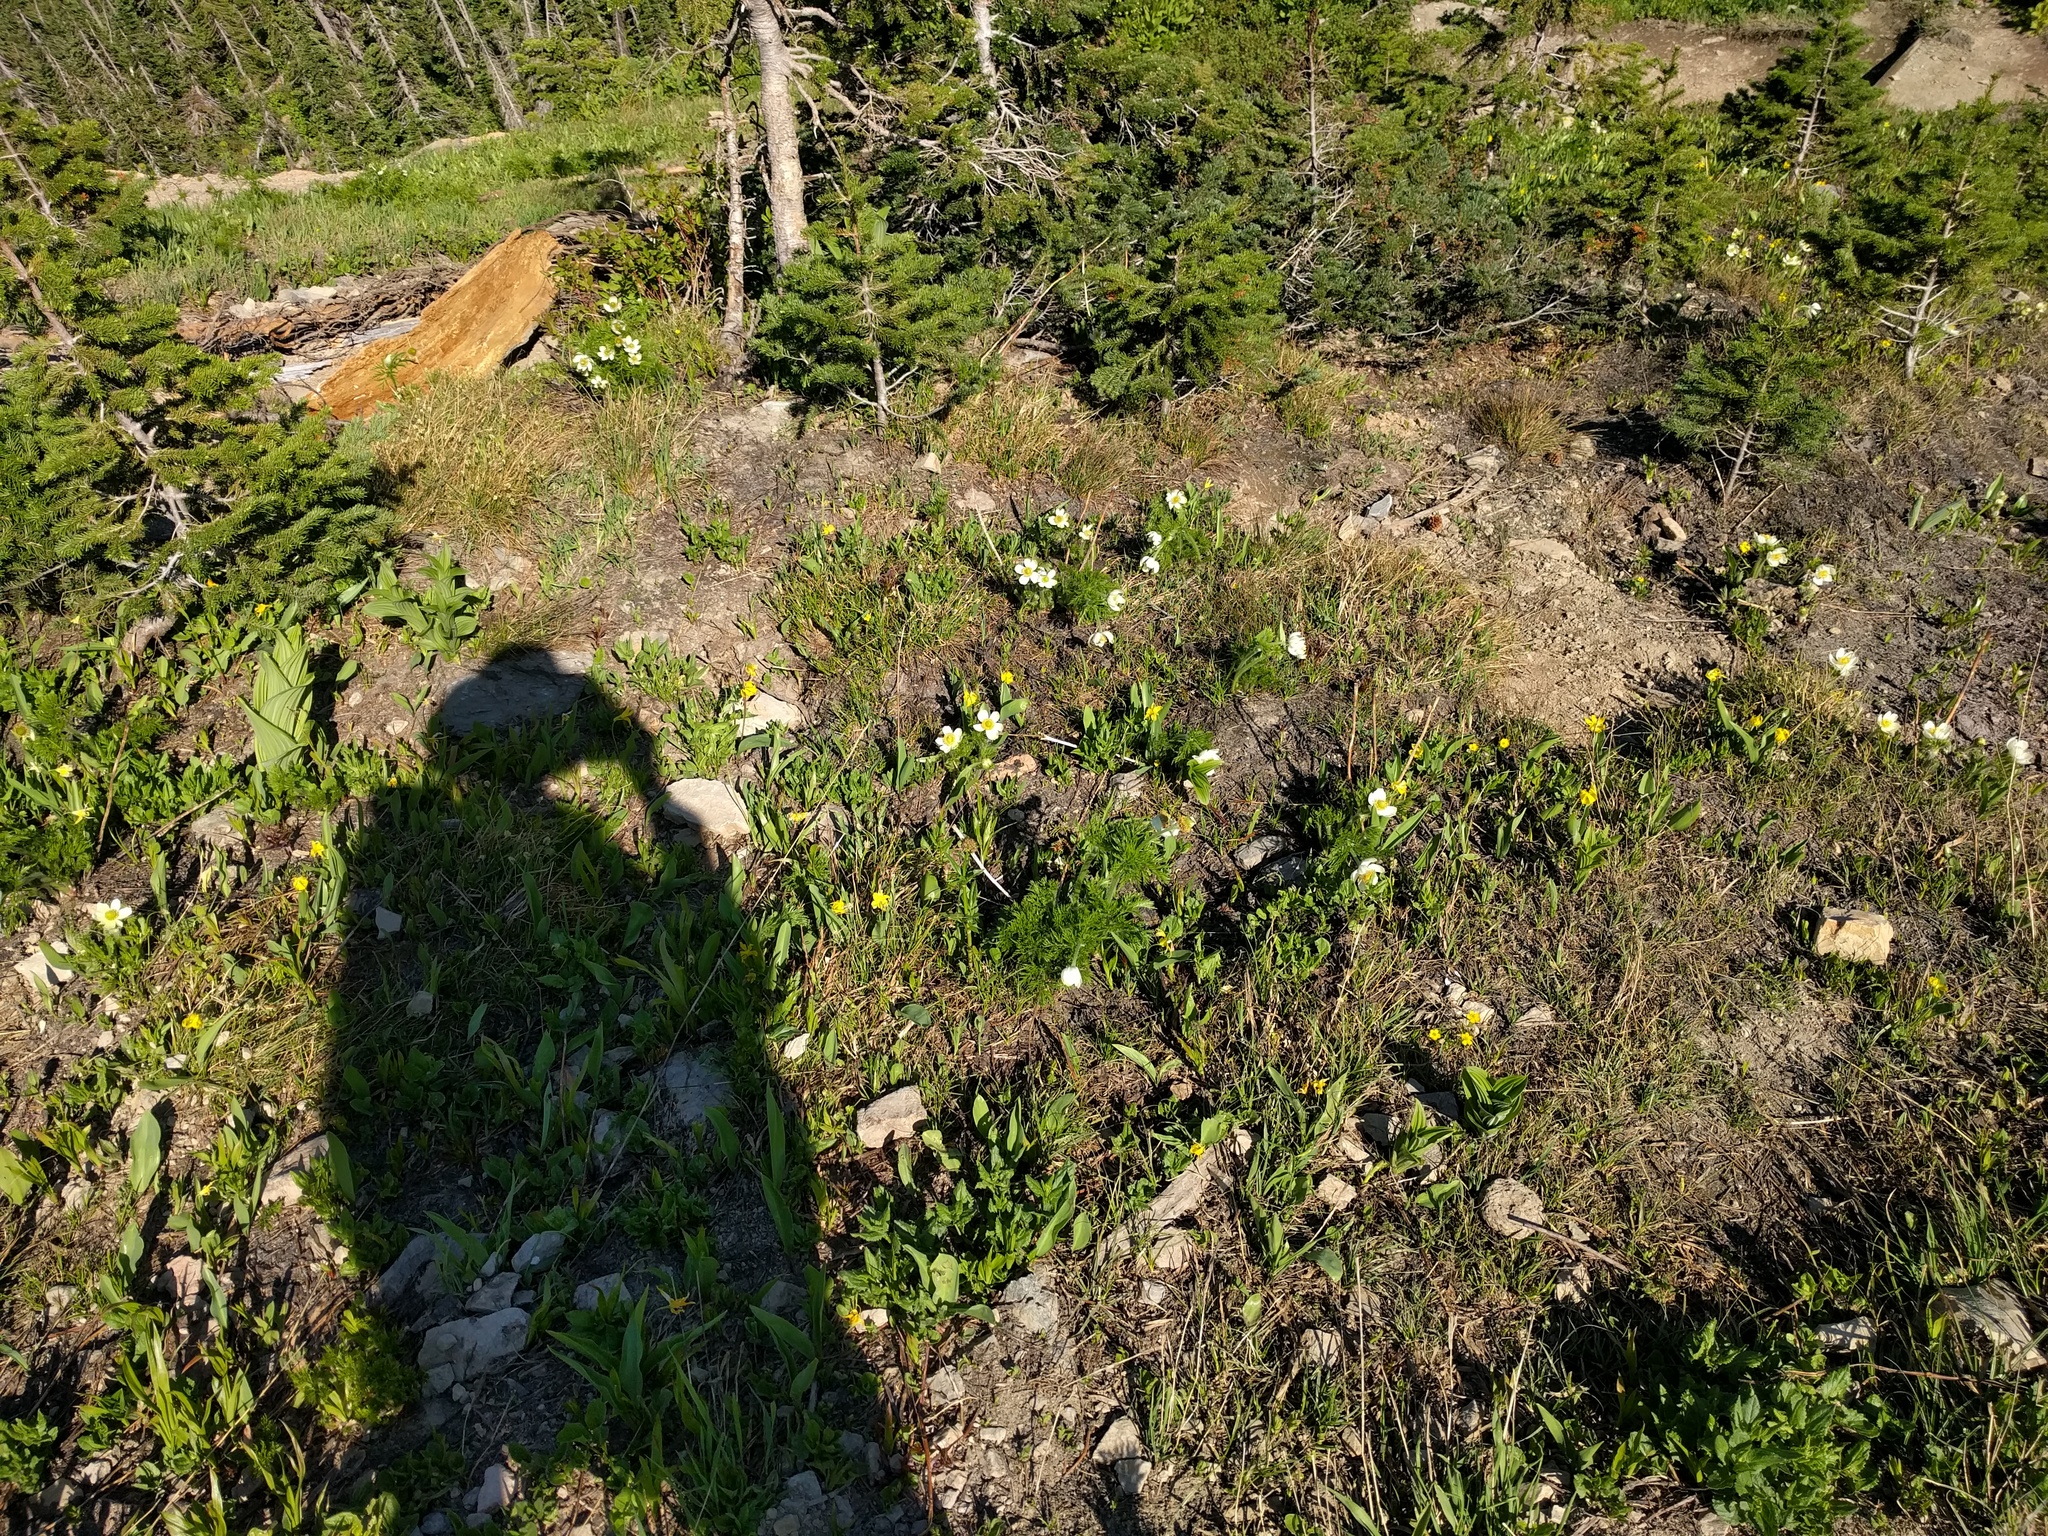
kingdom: Plantae
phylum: Tracheophyta
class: Magnoliopsida
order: Ranunculales
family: Ranunculaceae
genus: Pulsatilla
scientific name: Pulsatilla occidentalis
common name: Mountain pasqueflower
